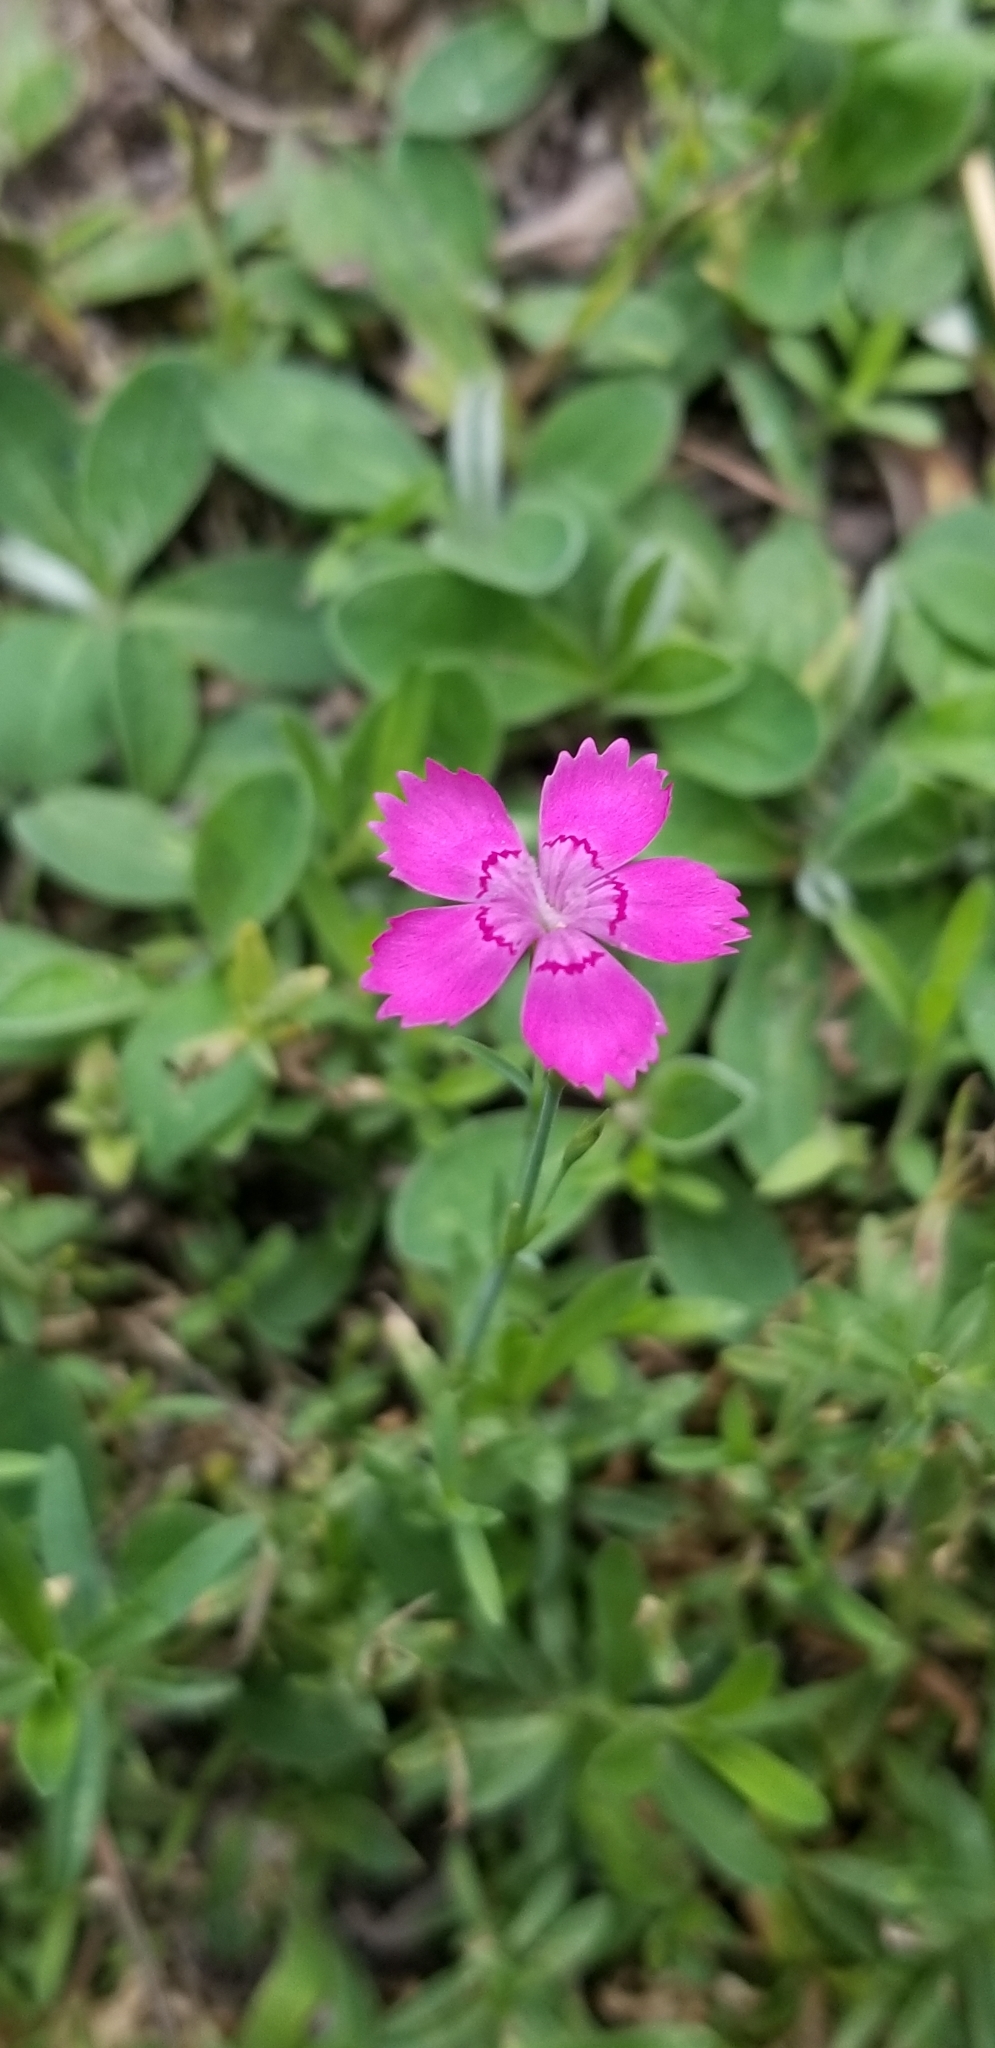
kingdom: Plantae
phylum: Tracheophyta
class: Magnoliopsida
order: Caryophyllales
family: Caryophyllaceae
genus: Dianthus
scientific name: Dianthus deltoides
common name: Maiden pink
